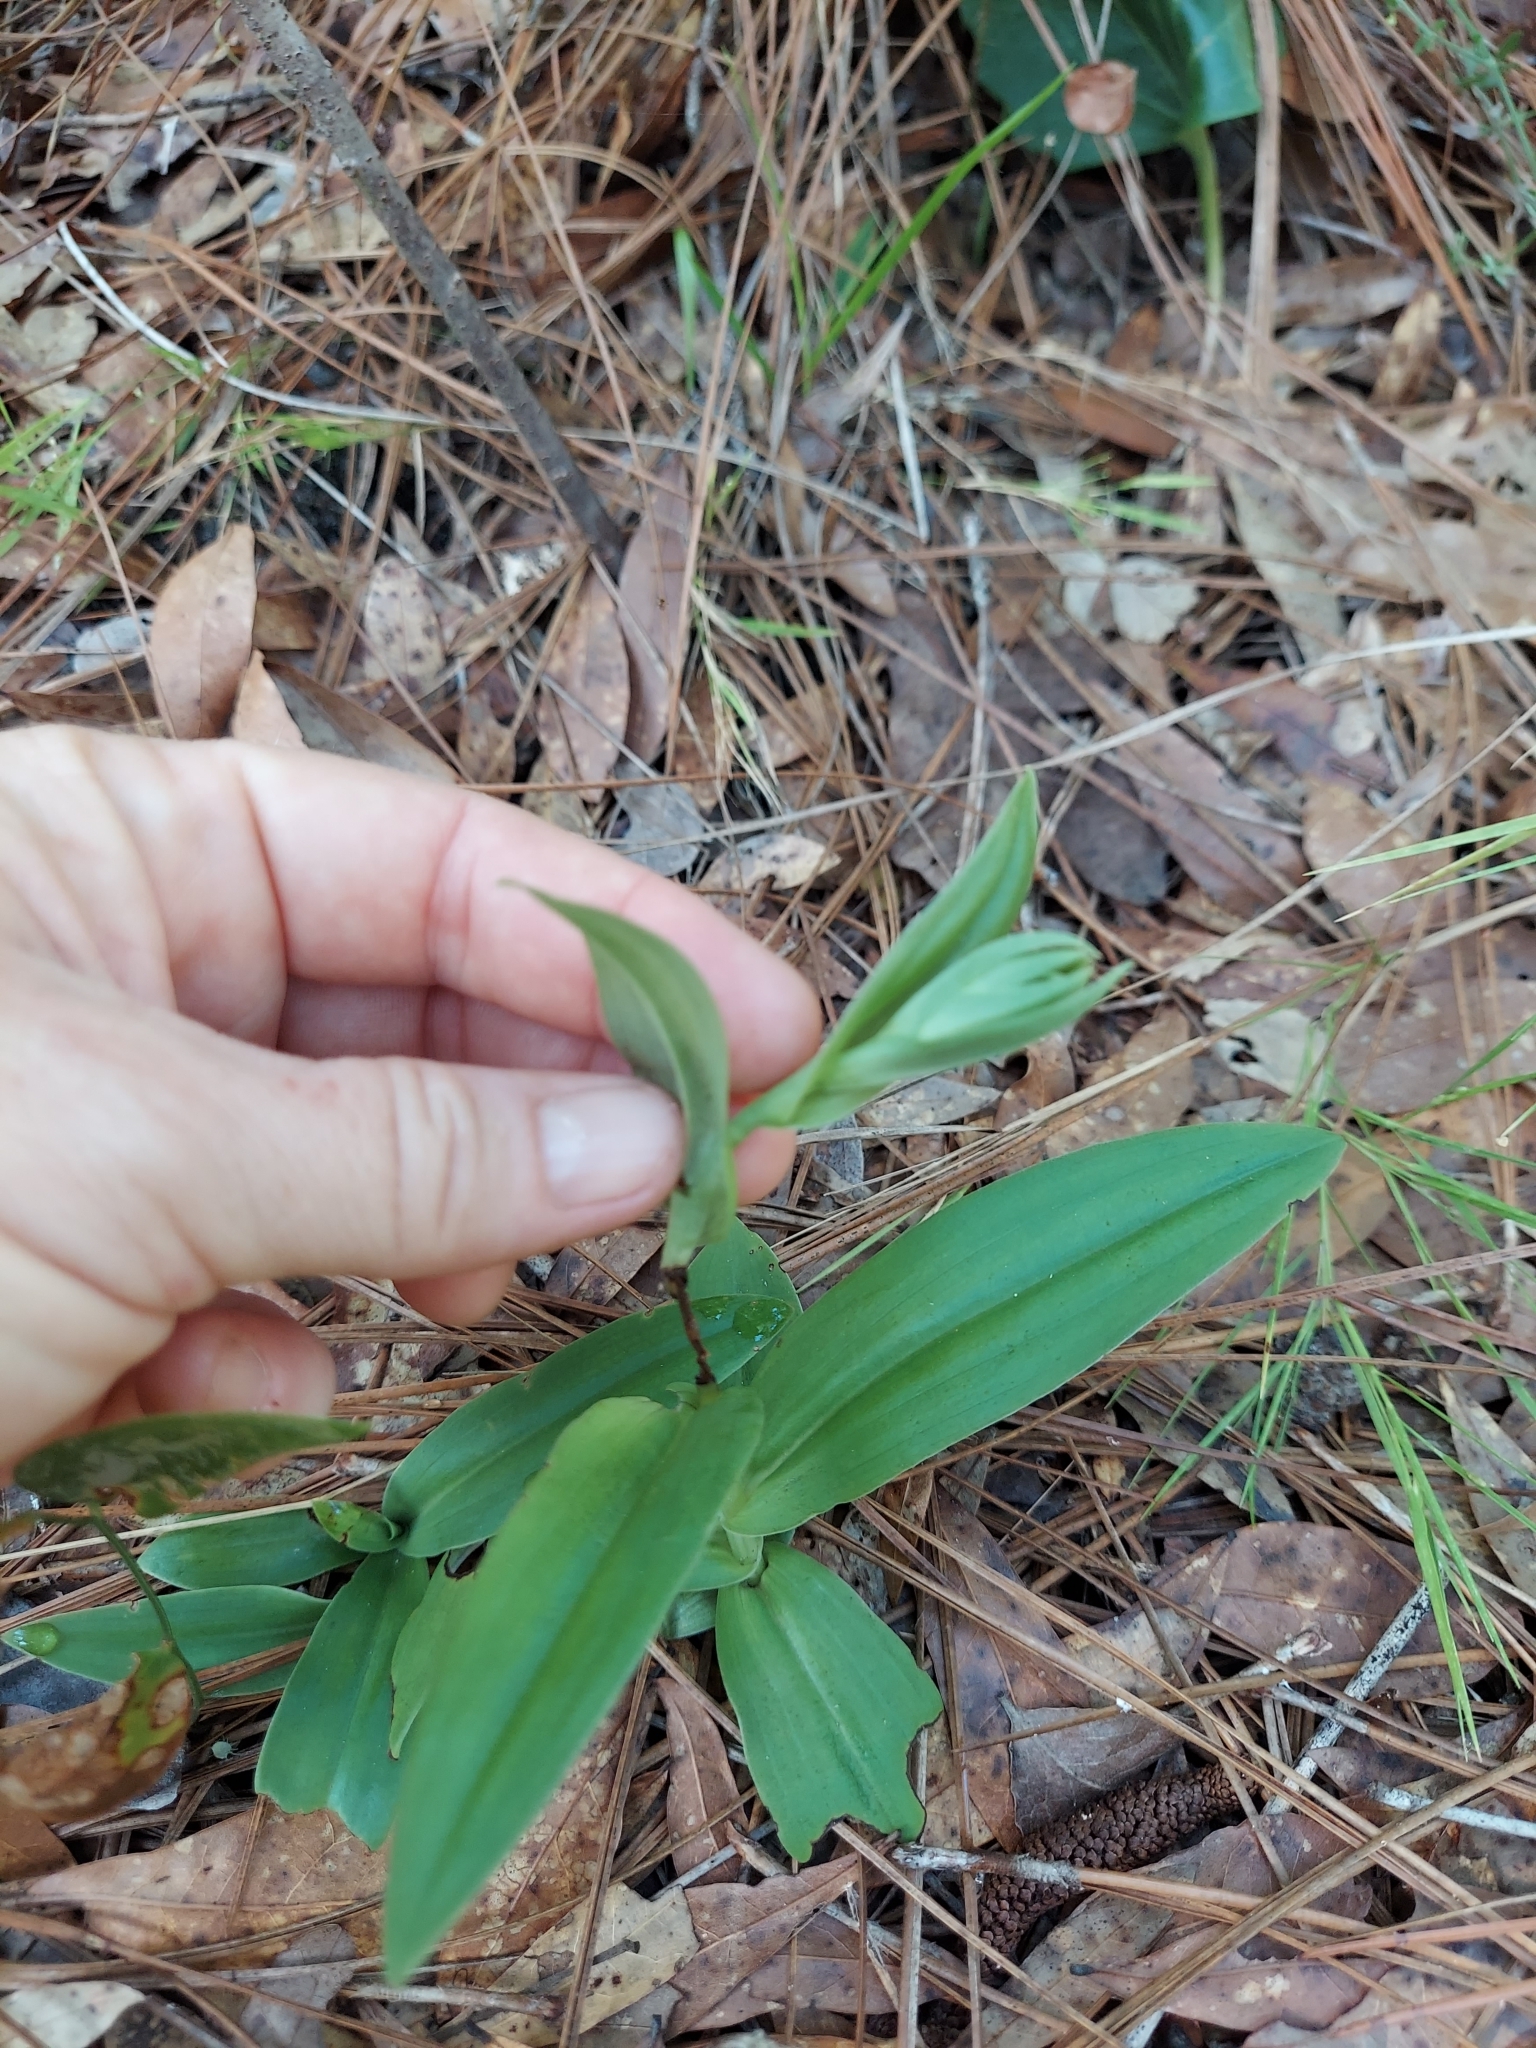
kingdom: Plantae
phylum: Tracheophyta
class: Liliopsida
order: Asparagales
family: Orchidaceae
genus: Habenaria
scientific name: Habenaria quinqueseta
